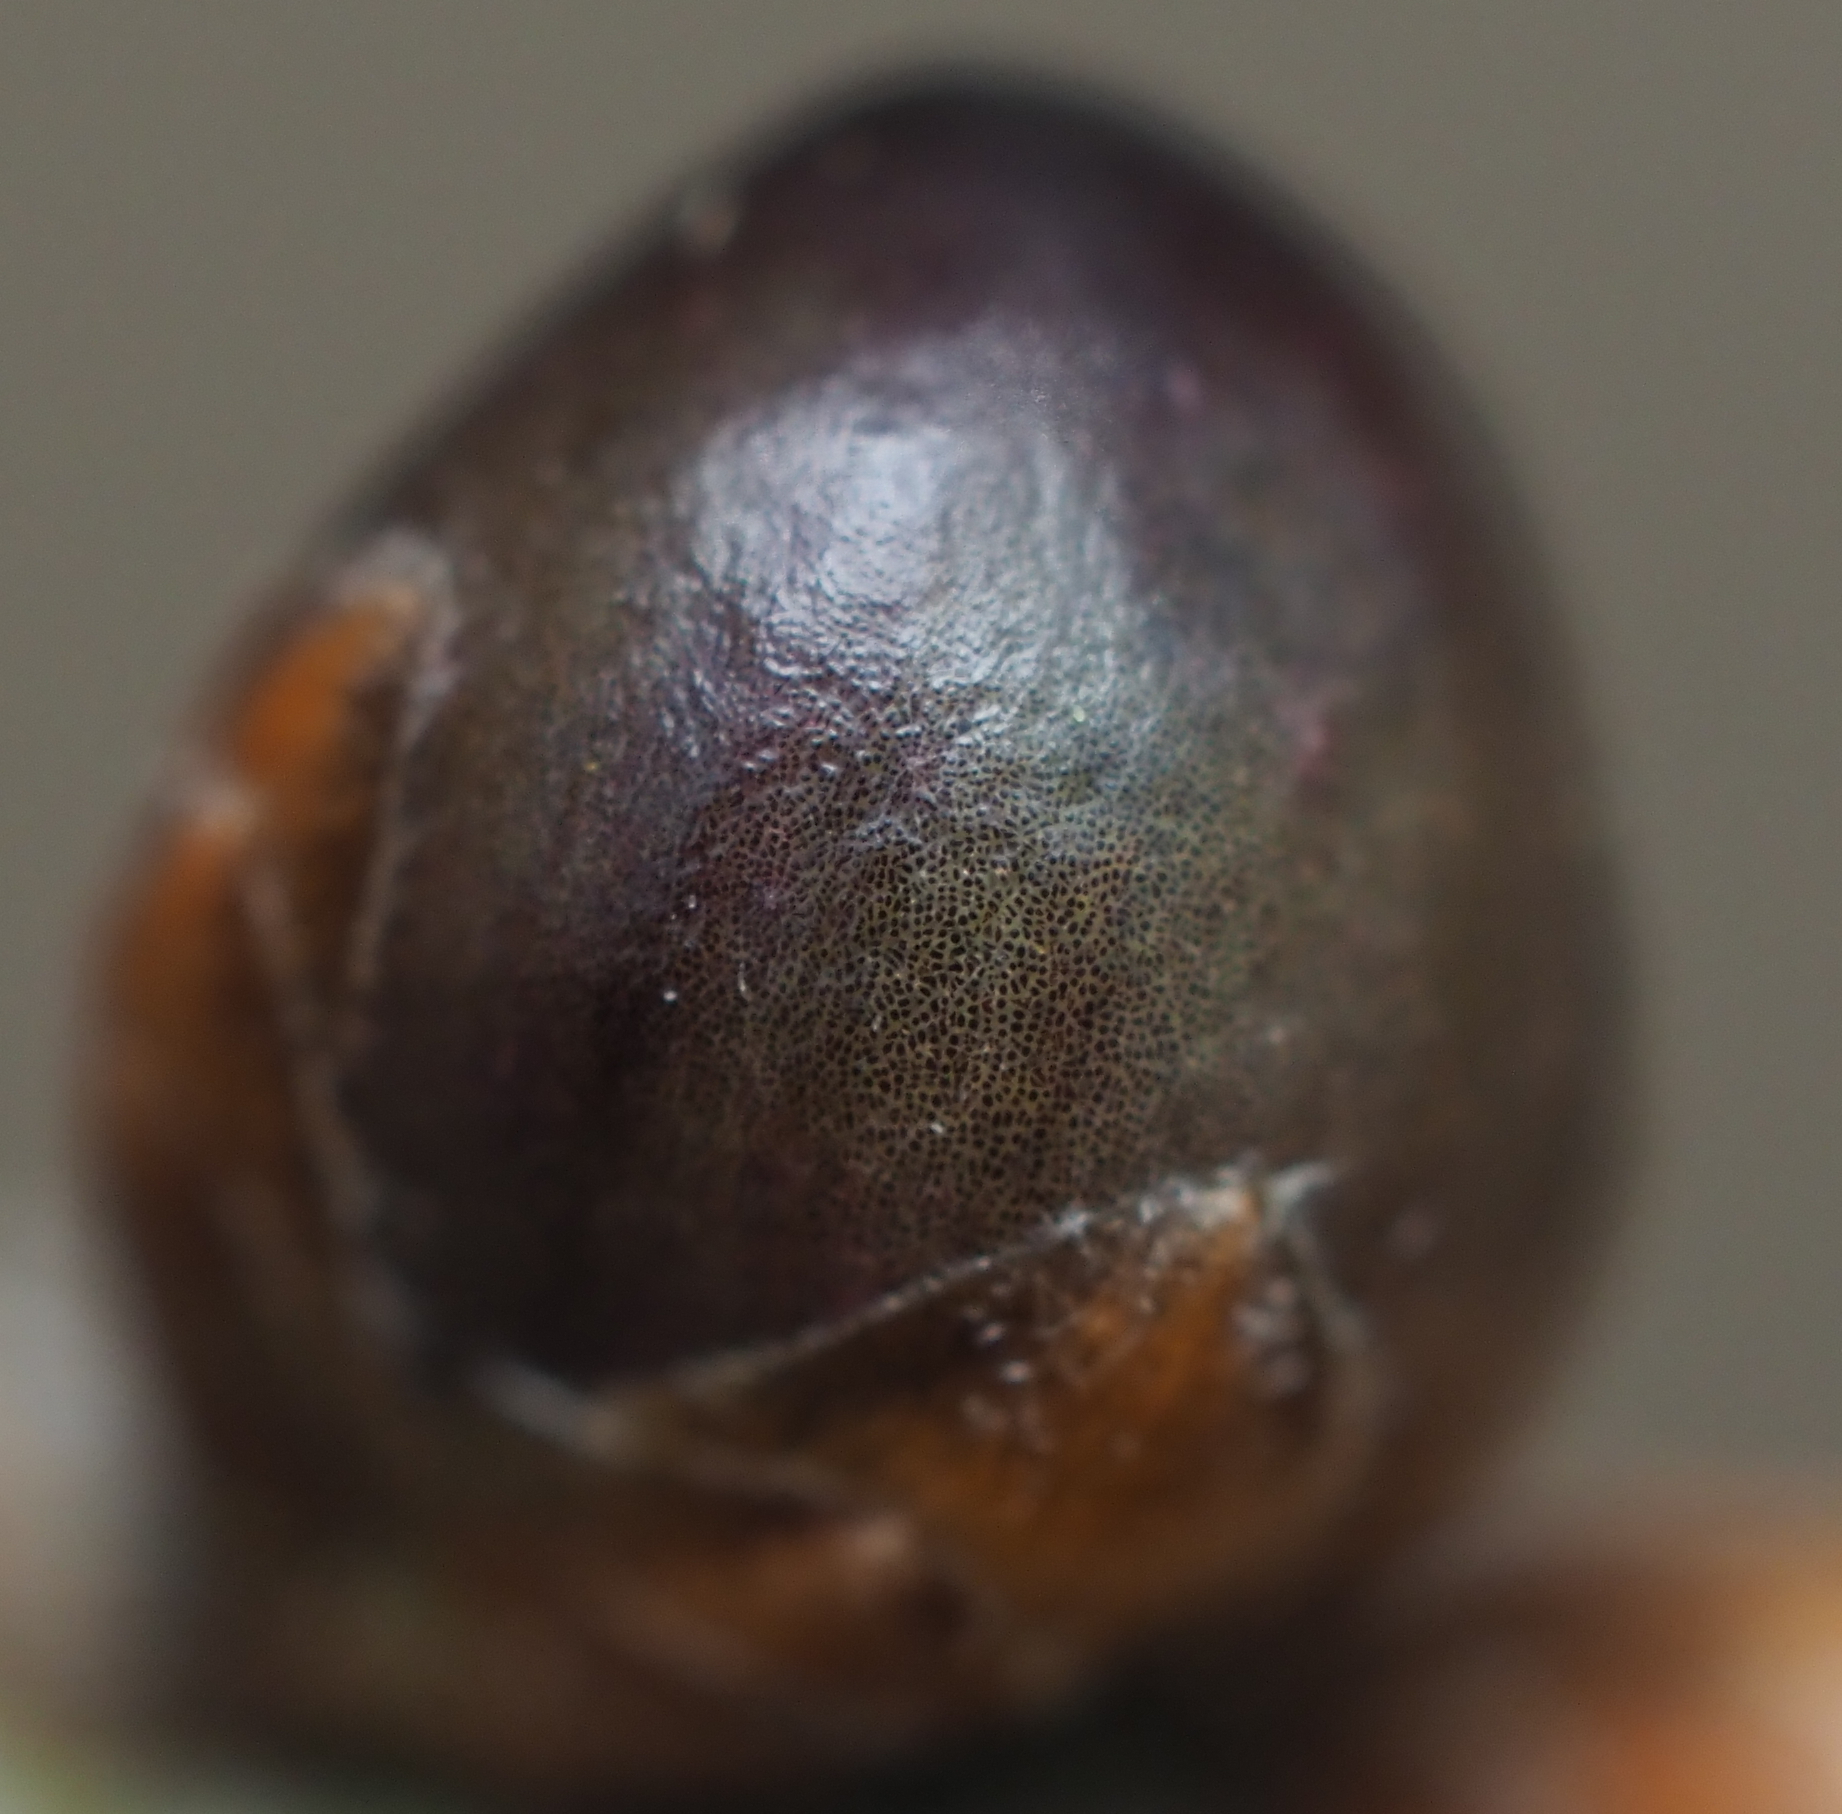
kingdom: Animalia
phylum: Arthropoda
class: Insecta
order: Hymenoptera
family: Cynipidae
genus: Neuroterus
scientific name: Neuroterus
